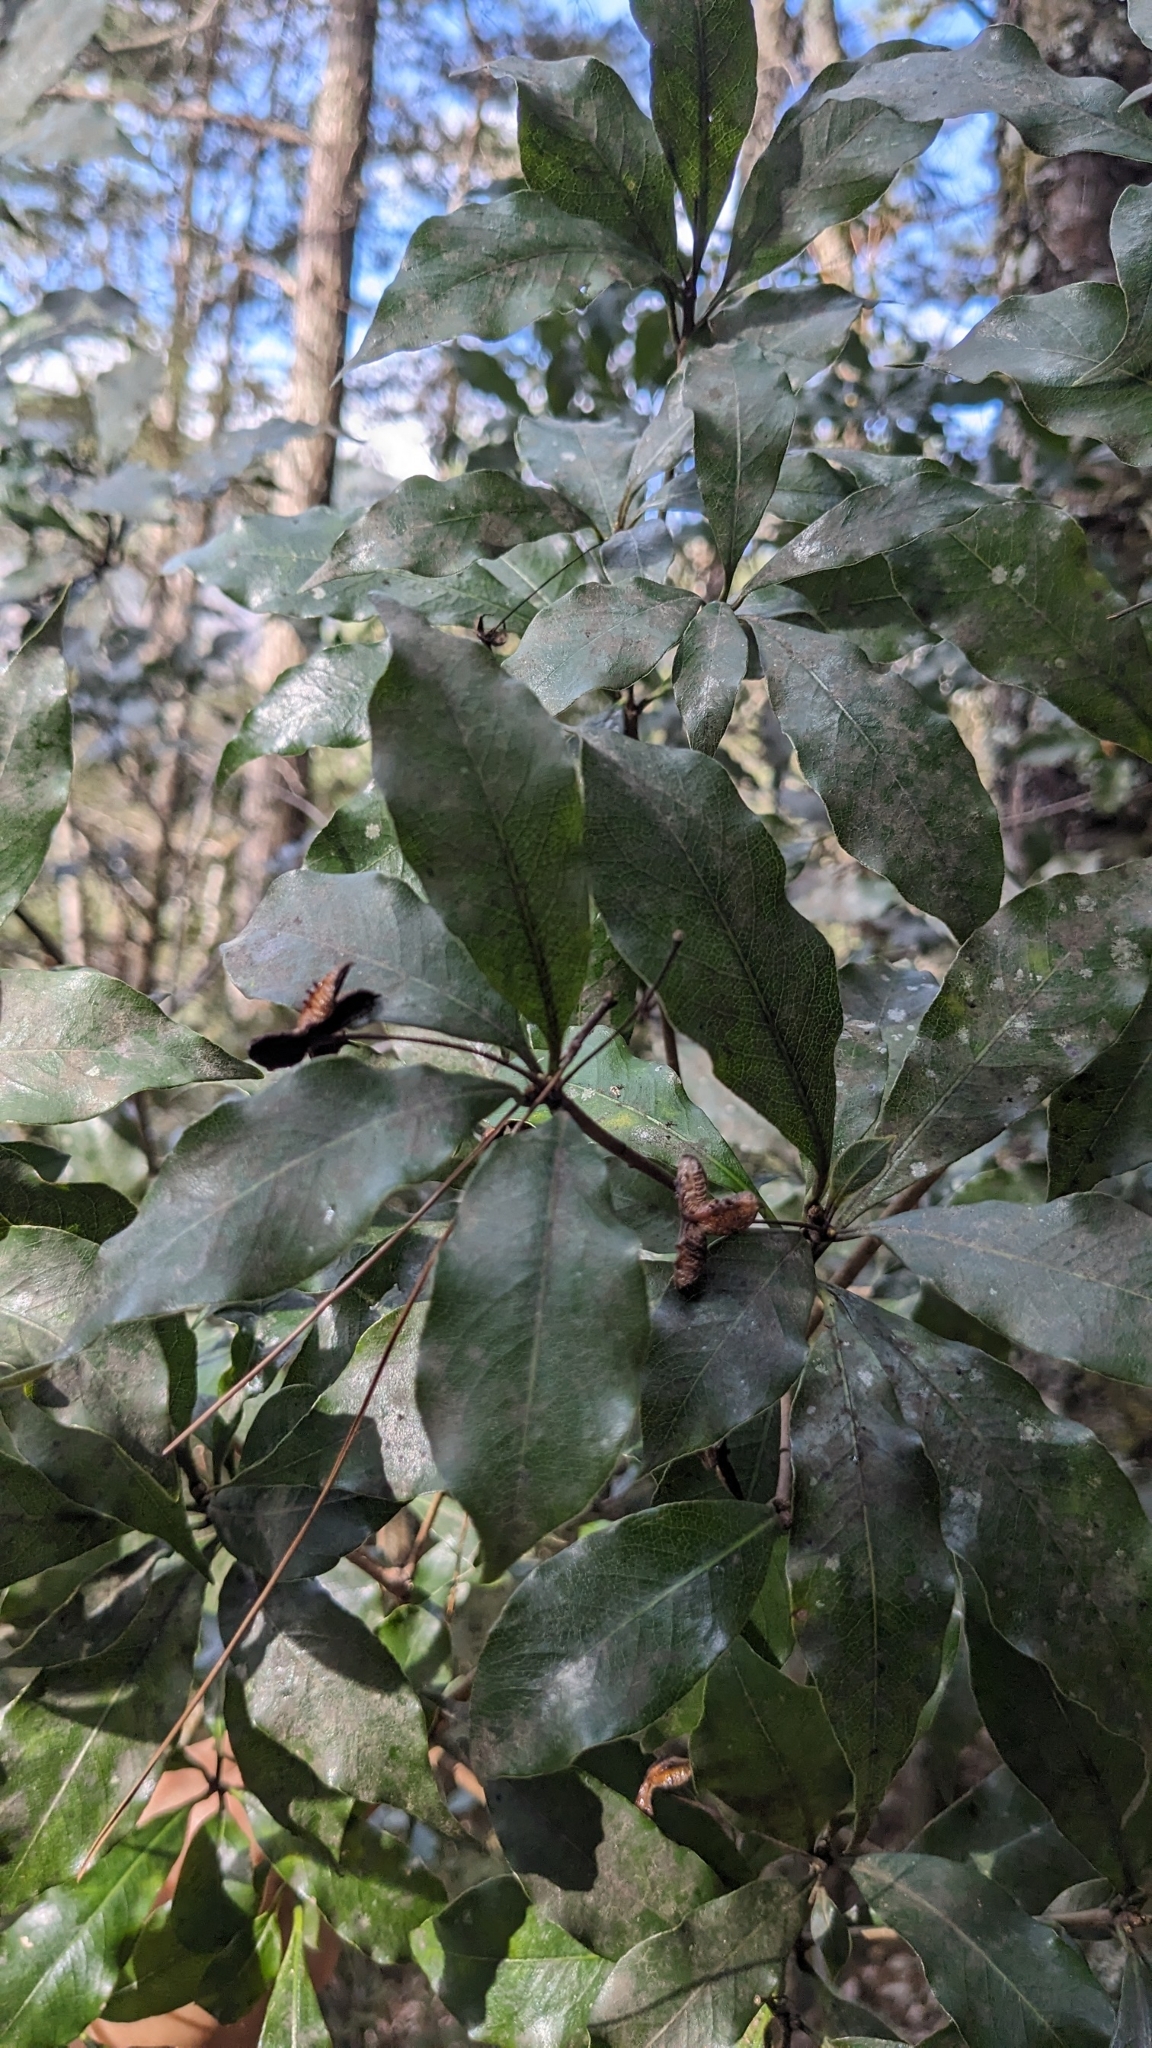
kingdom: Plantae
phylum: Tracheophyta
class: Magnoliopsida
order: Apiales
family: Pittosporaceae
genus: Pittosporum
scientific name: Pittosporum illicioides
